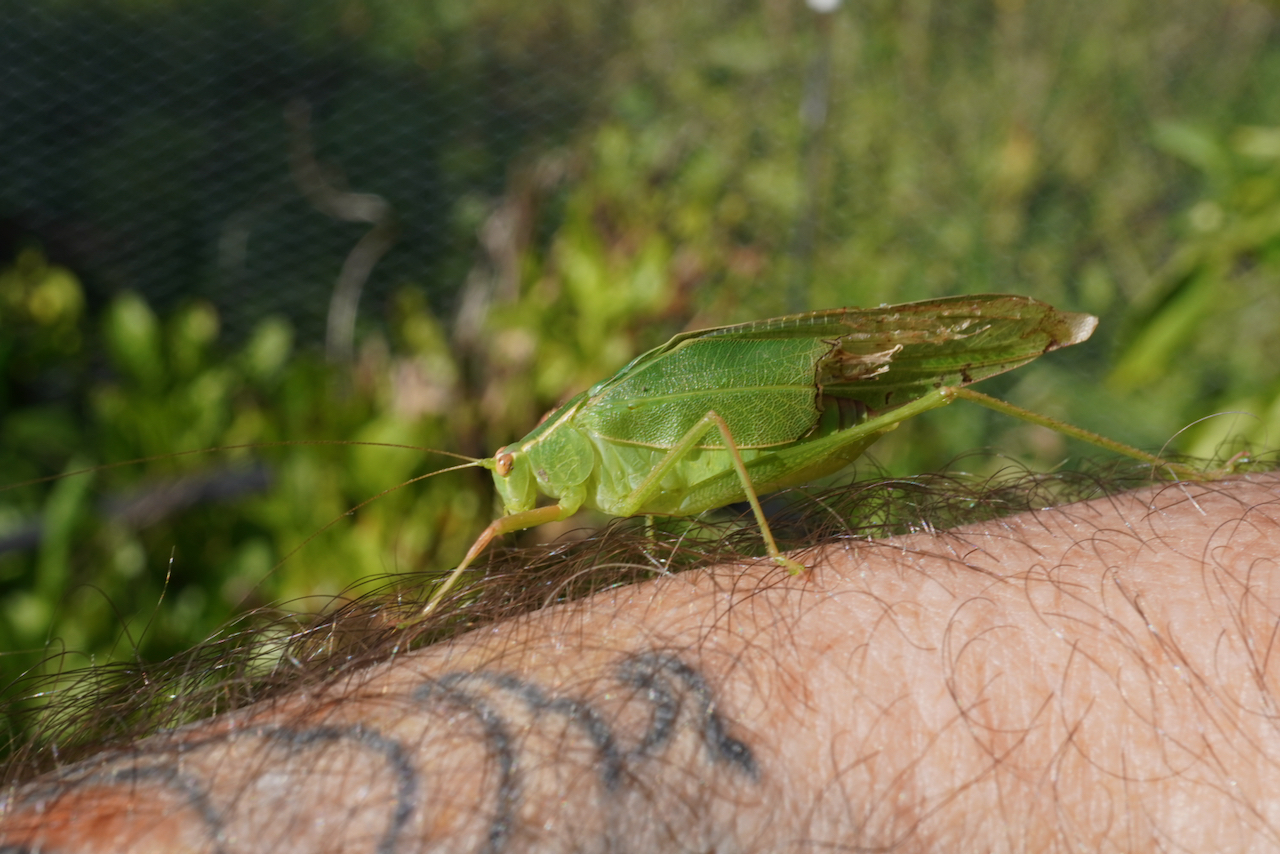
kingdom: Animalia
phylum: Arthropoda
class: Insecta
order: Orthoptera
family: Tettigoniidae
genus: Caedicia
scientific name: Caedicia simplex
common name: Common garden katydid
